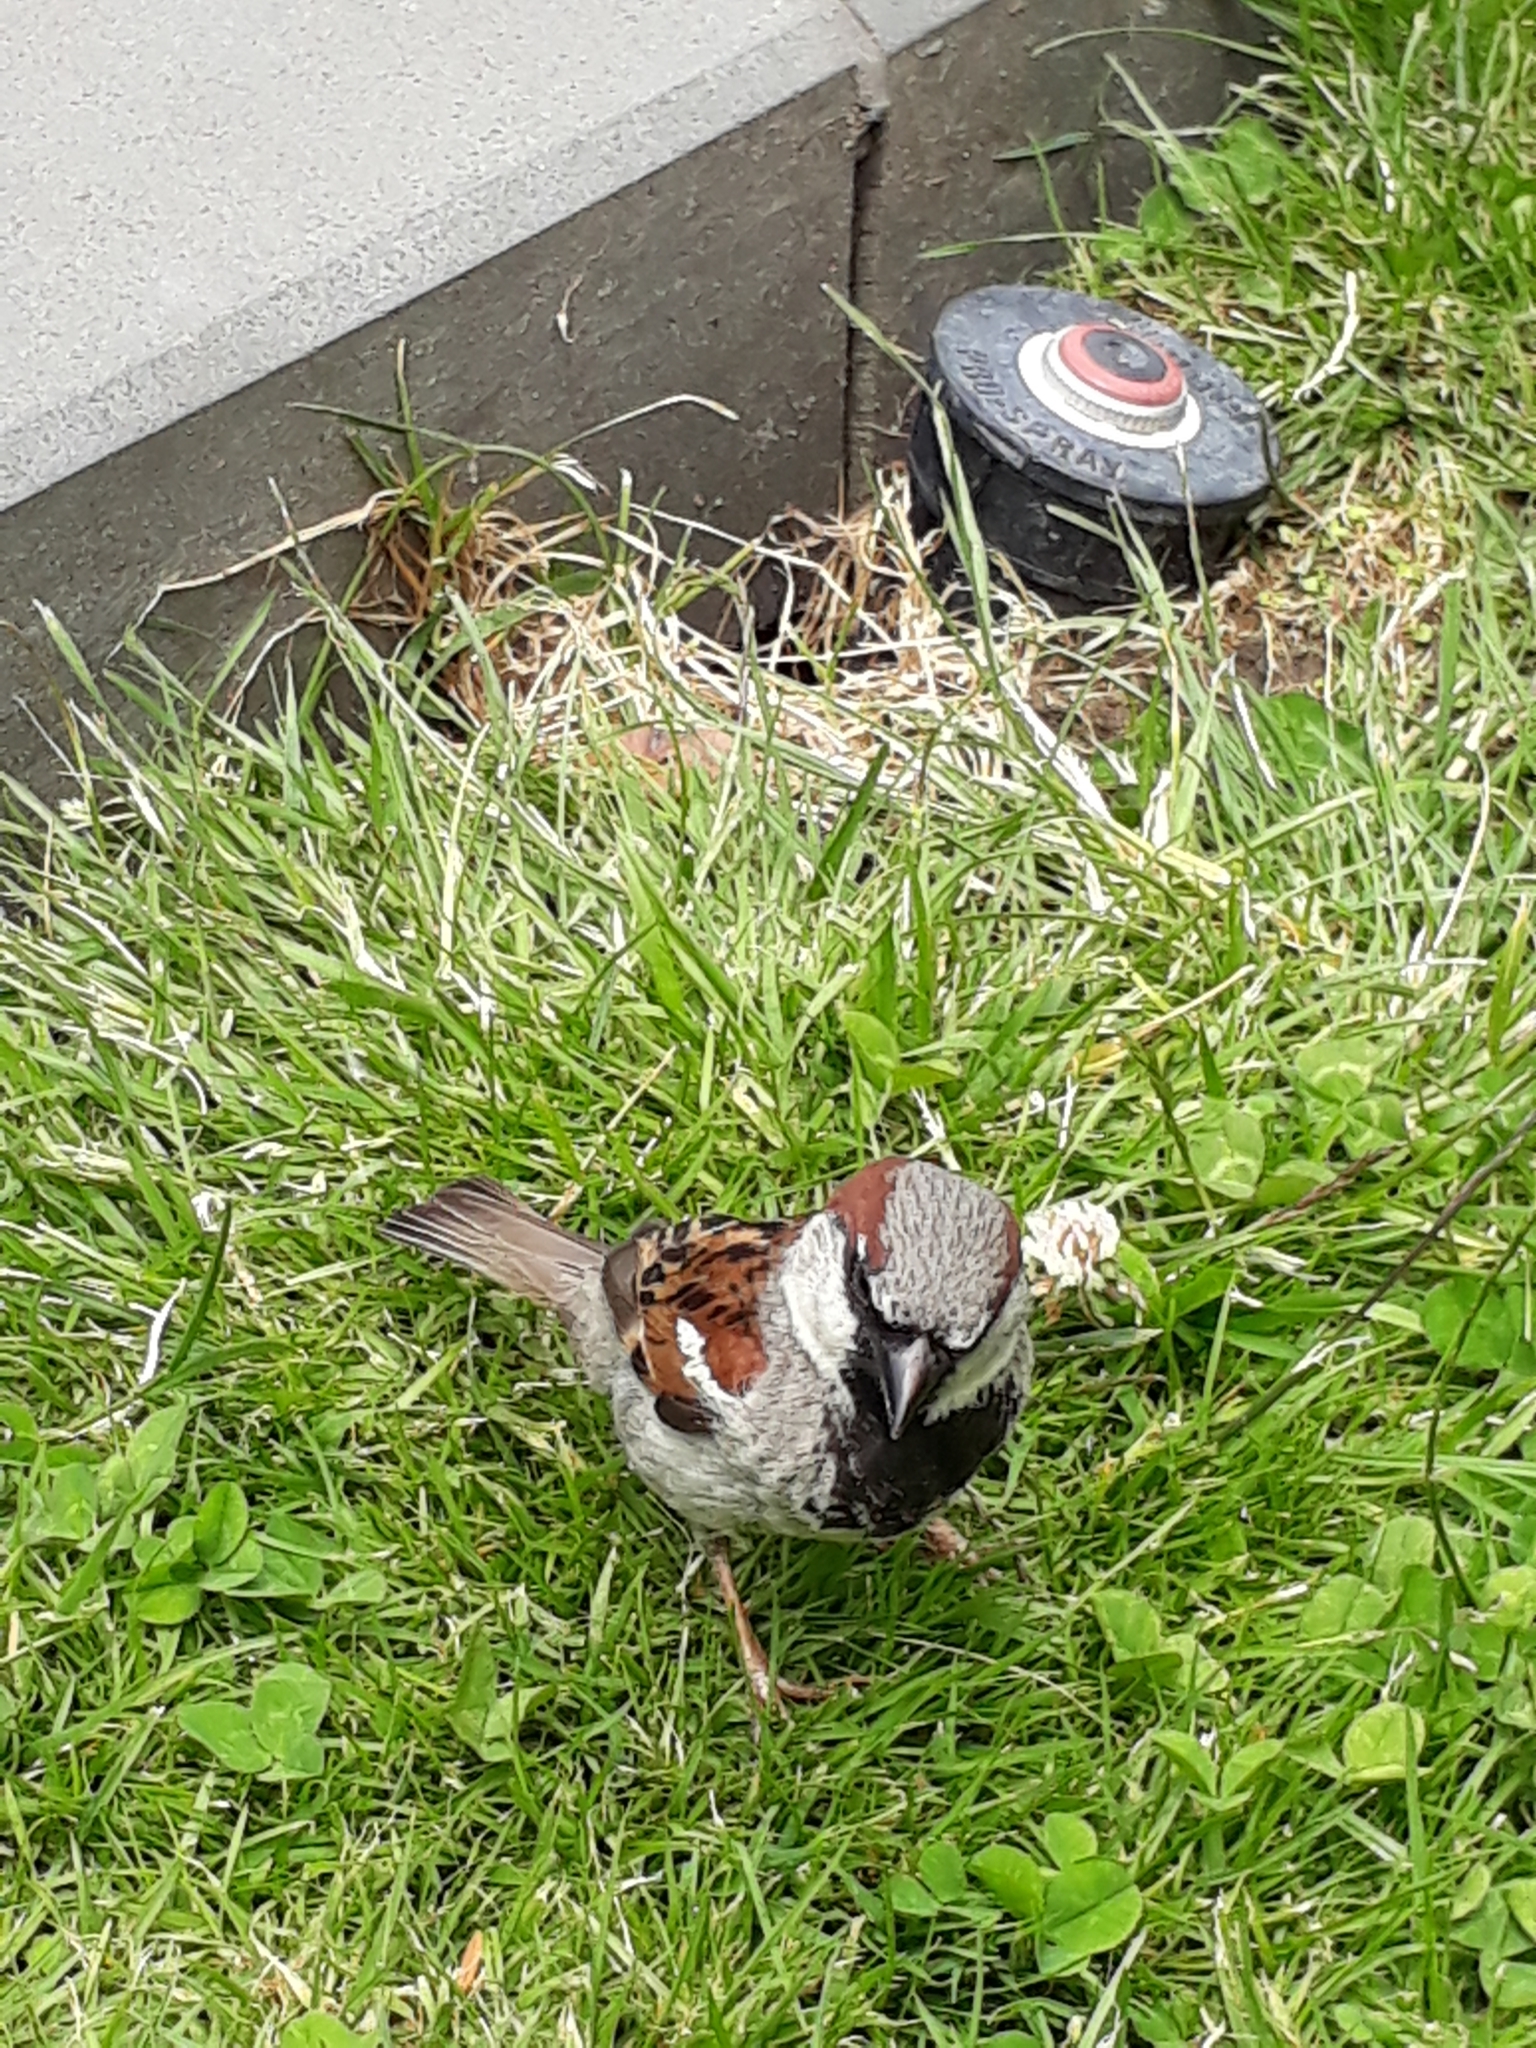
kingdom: Animalia
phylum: Chordata
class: Aves
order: Passeriformes
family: Passeridae
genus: Passer
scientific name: Passer domesticus
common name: House sparrow
